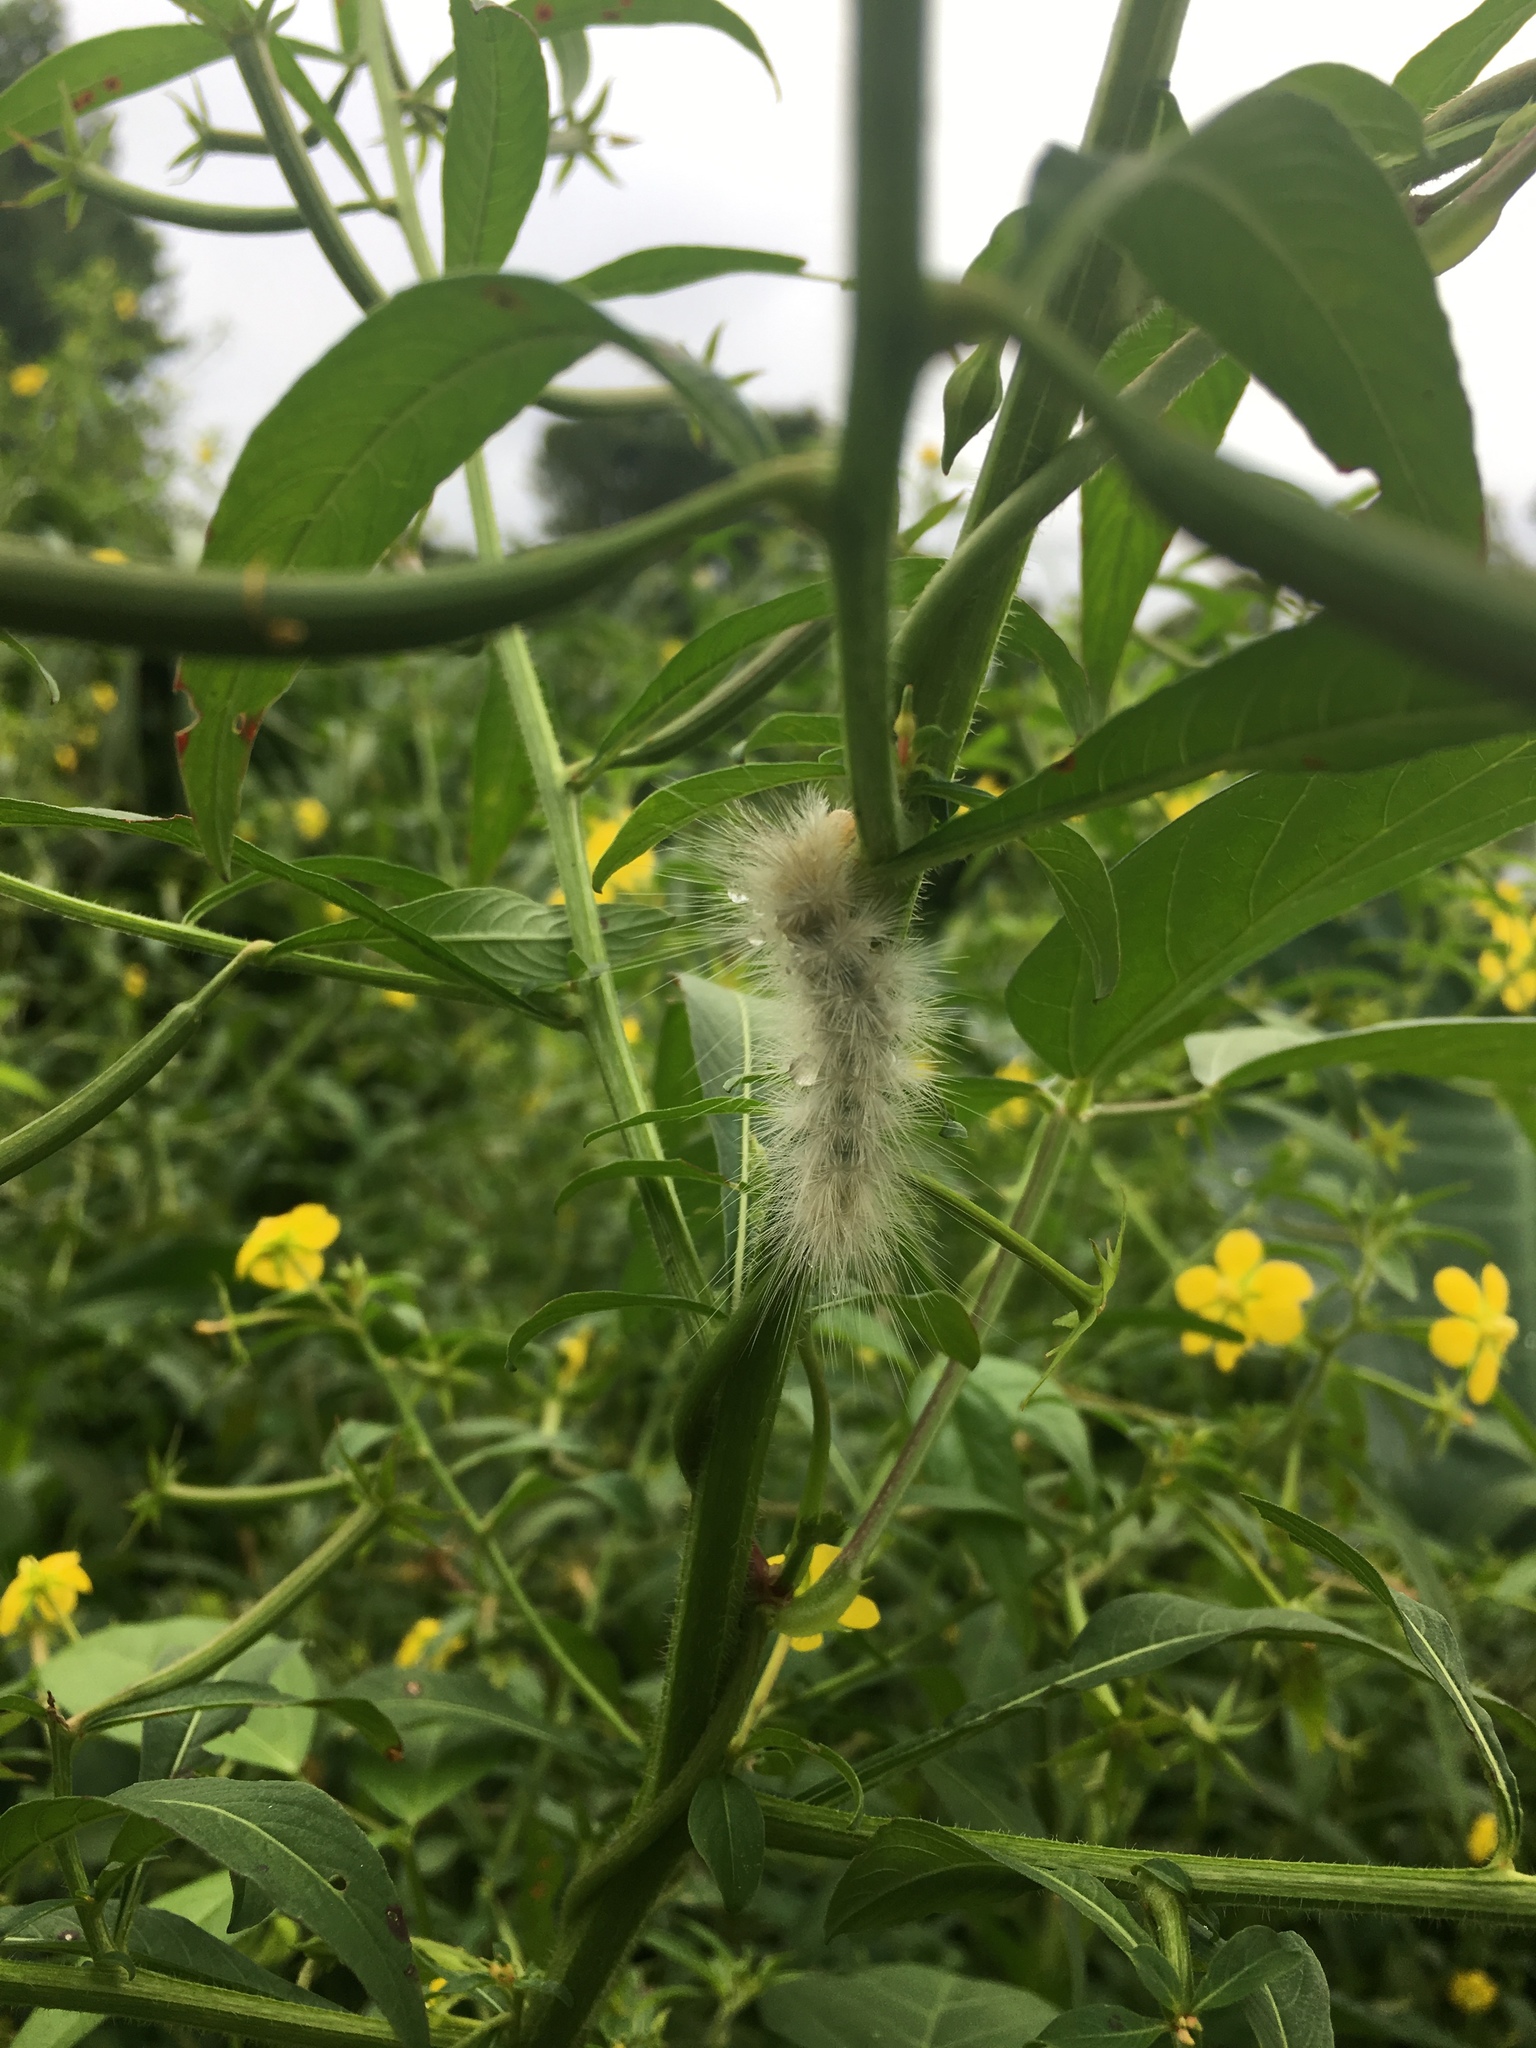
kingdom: Animalia
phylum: Arthropoda
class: Insecta
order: Lepidoptera
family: Erebidae
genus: Spilosoma
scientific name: Spilosoma virginica
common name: Virginia tiger moth
